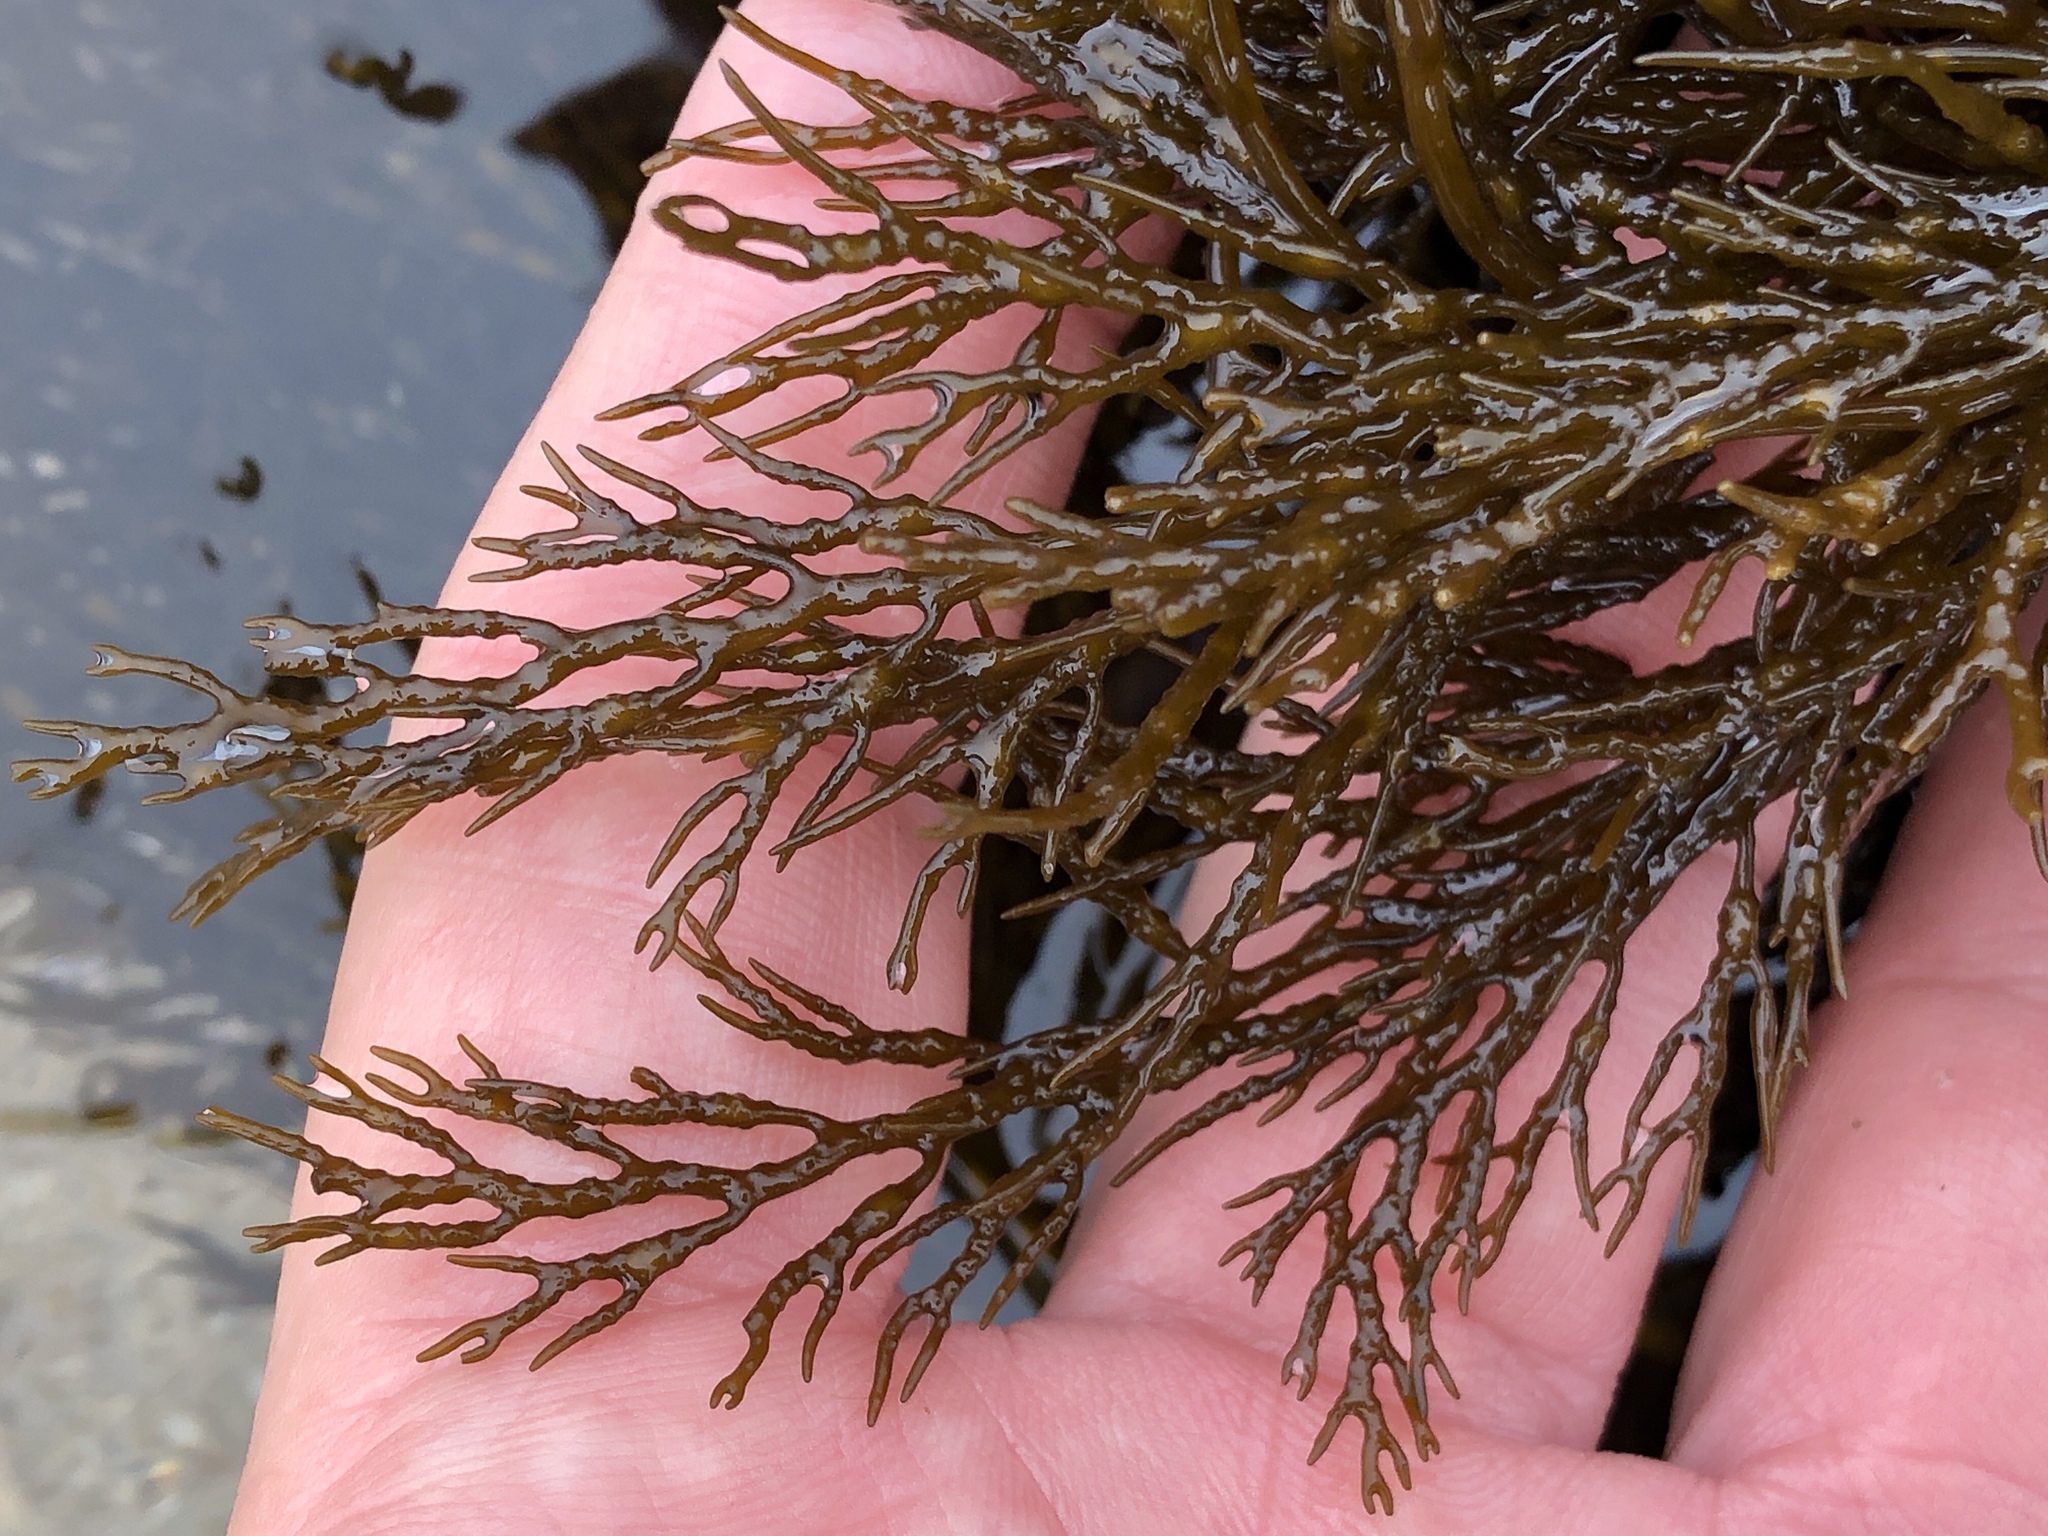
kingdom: Chromista
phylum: Ochrophyta
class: Phaeophyceae
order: Fucales
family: Sargassaceae
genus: Stephanocystis
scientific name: Stephanocystis
